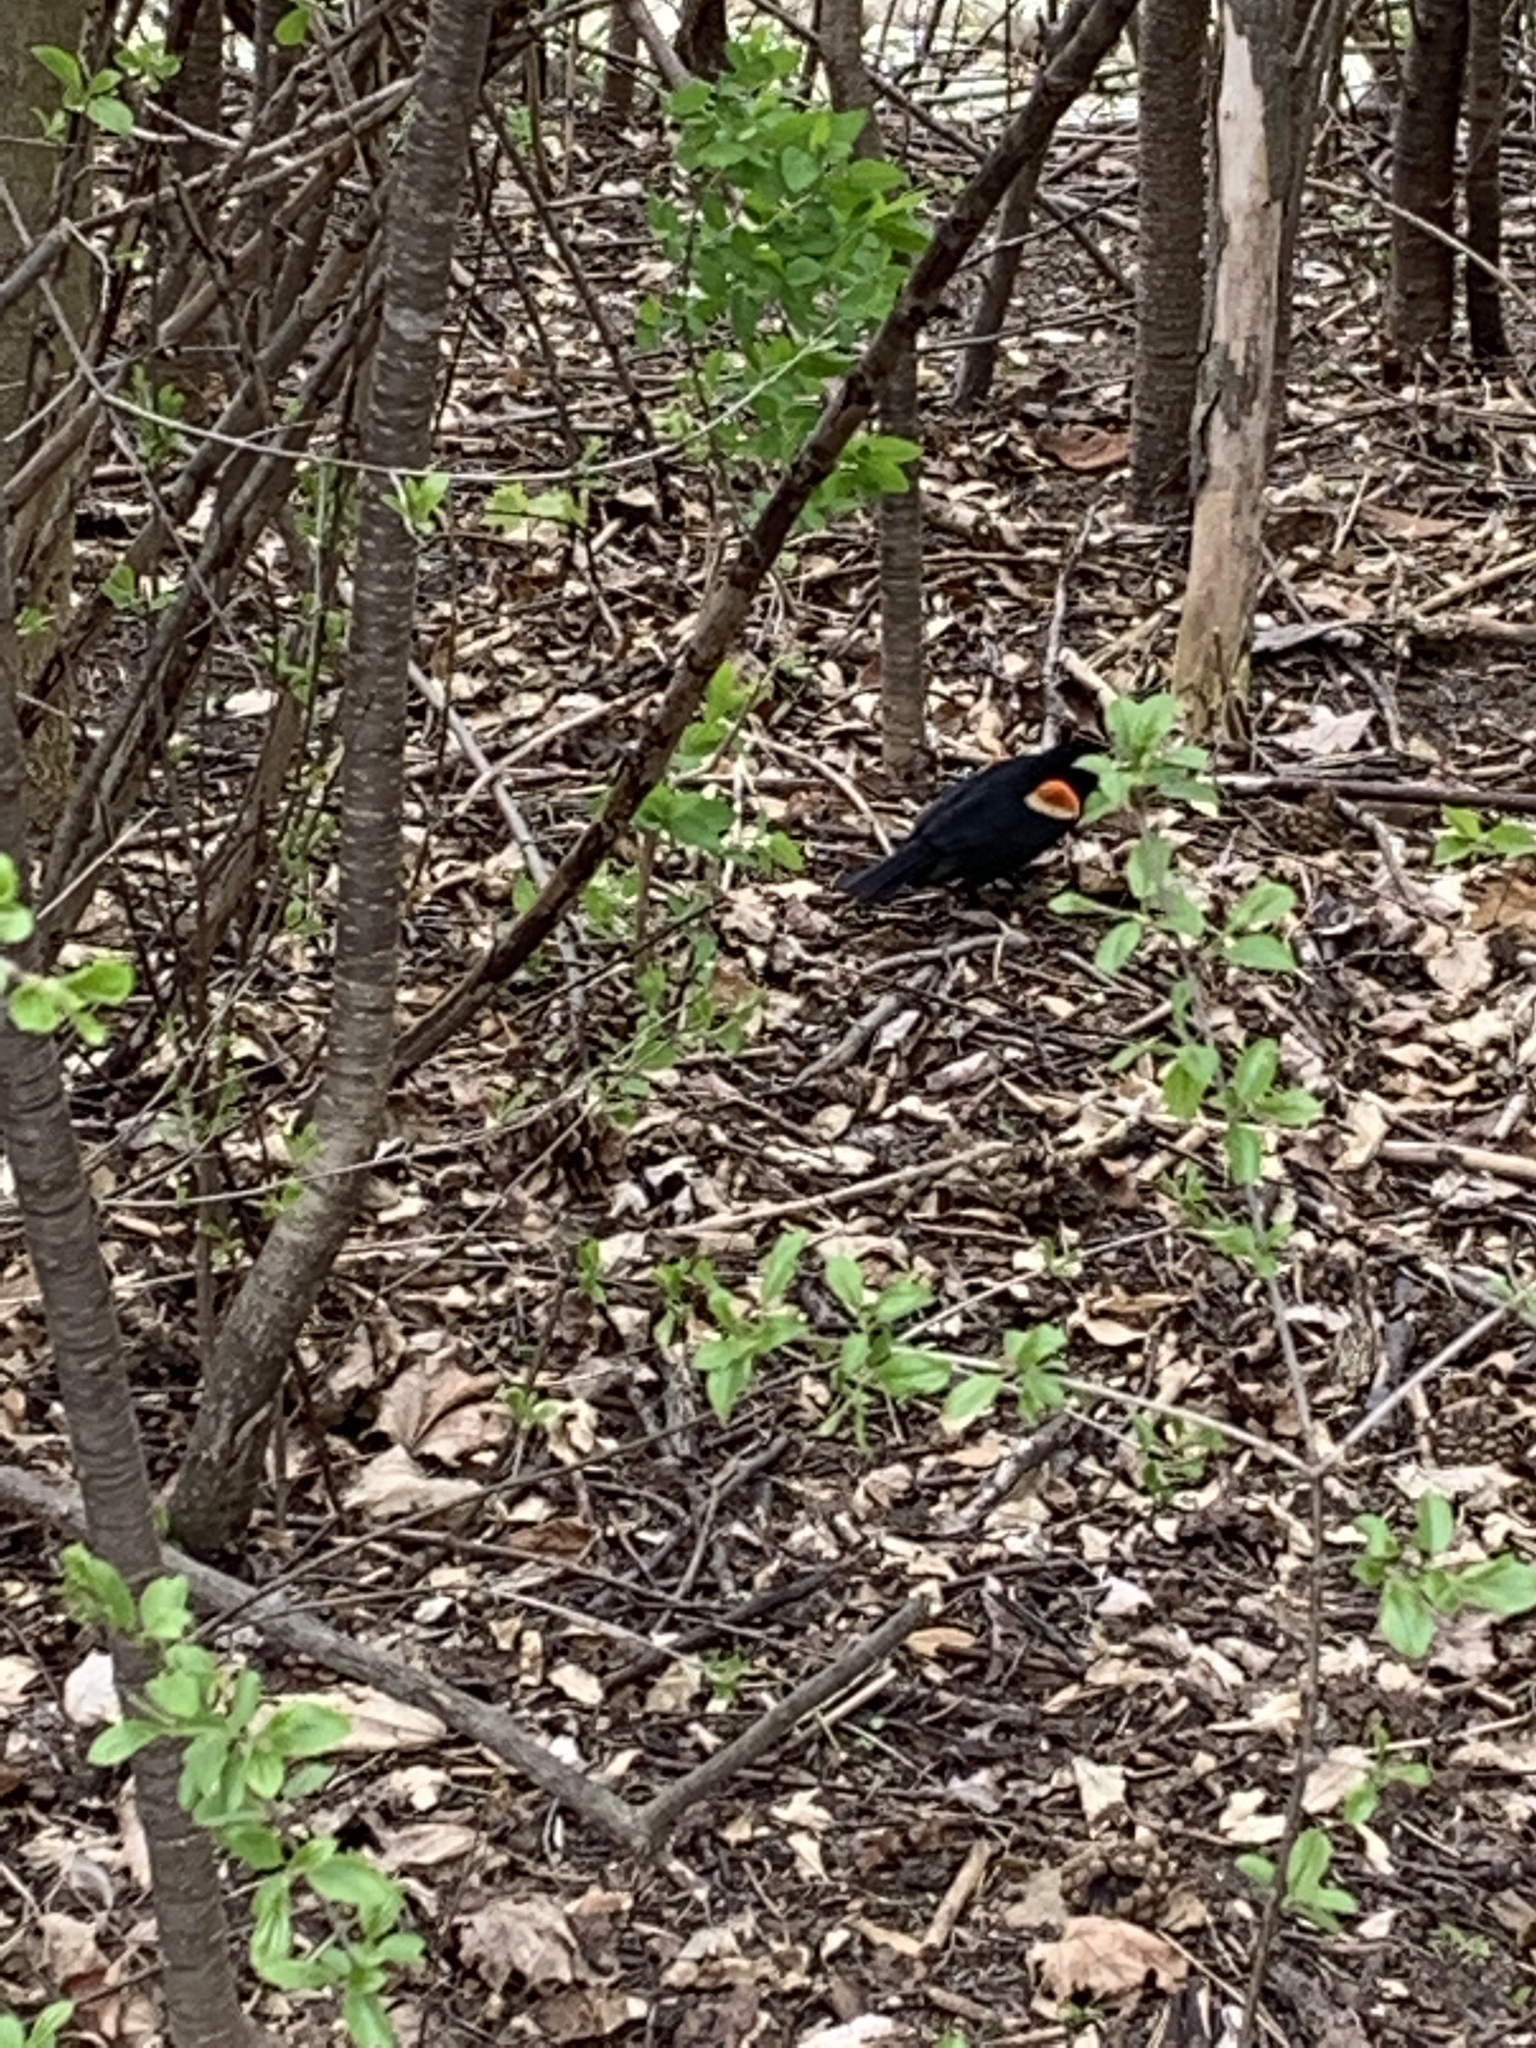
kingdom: Animalia
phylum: Chordata
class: Aves
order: Passeriformes
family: Icteridae
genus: Agelaius
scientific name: Agelaius phoeniceus
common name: Red-winged blackbird
